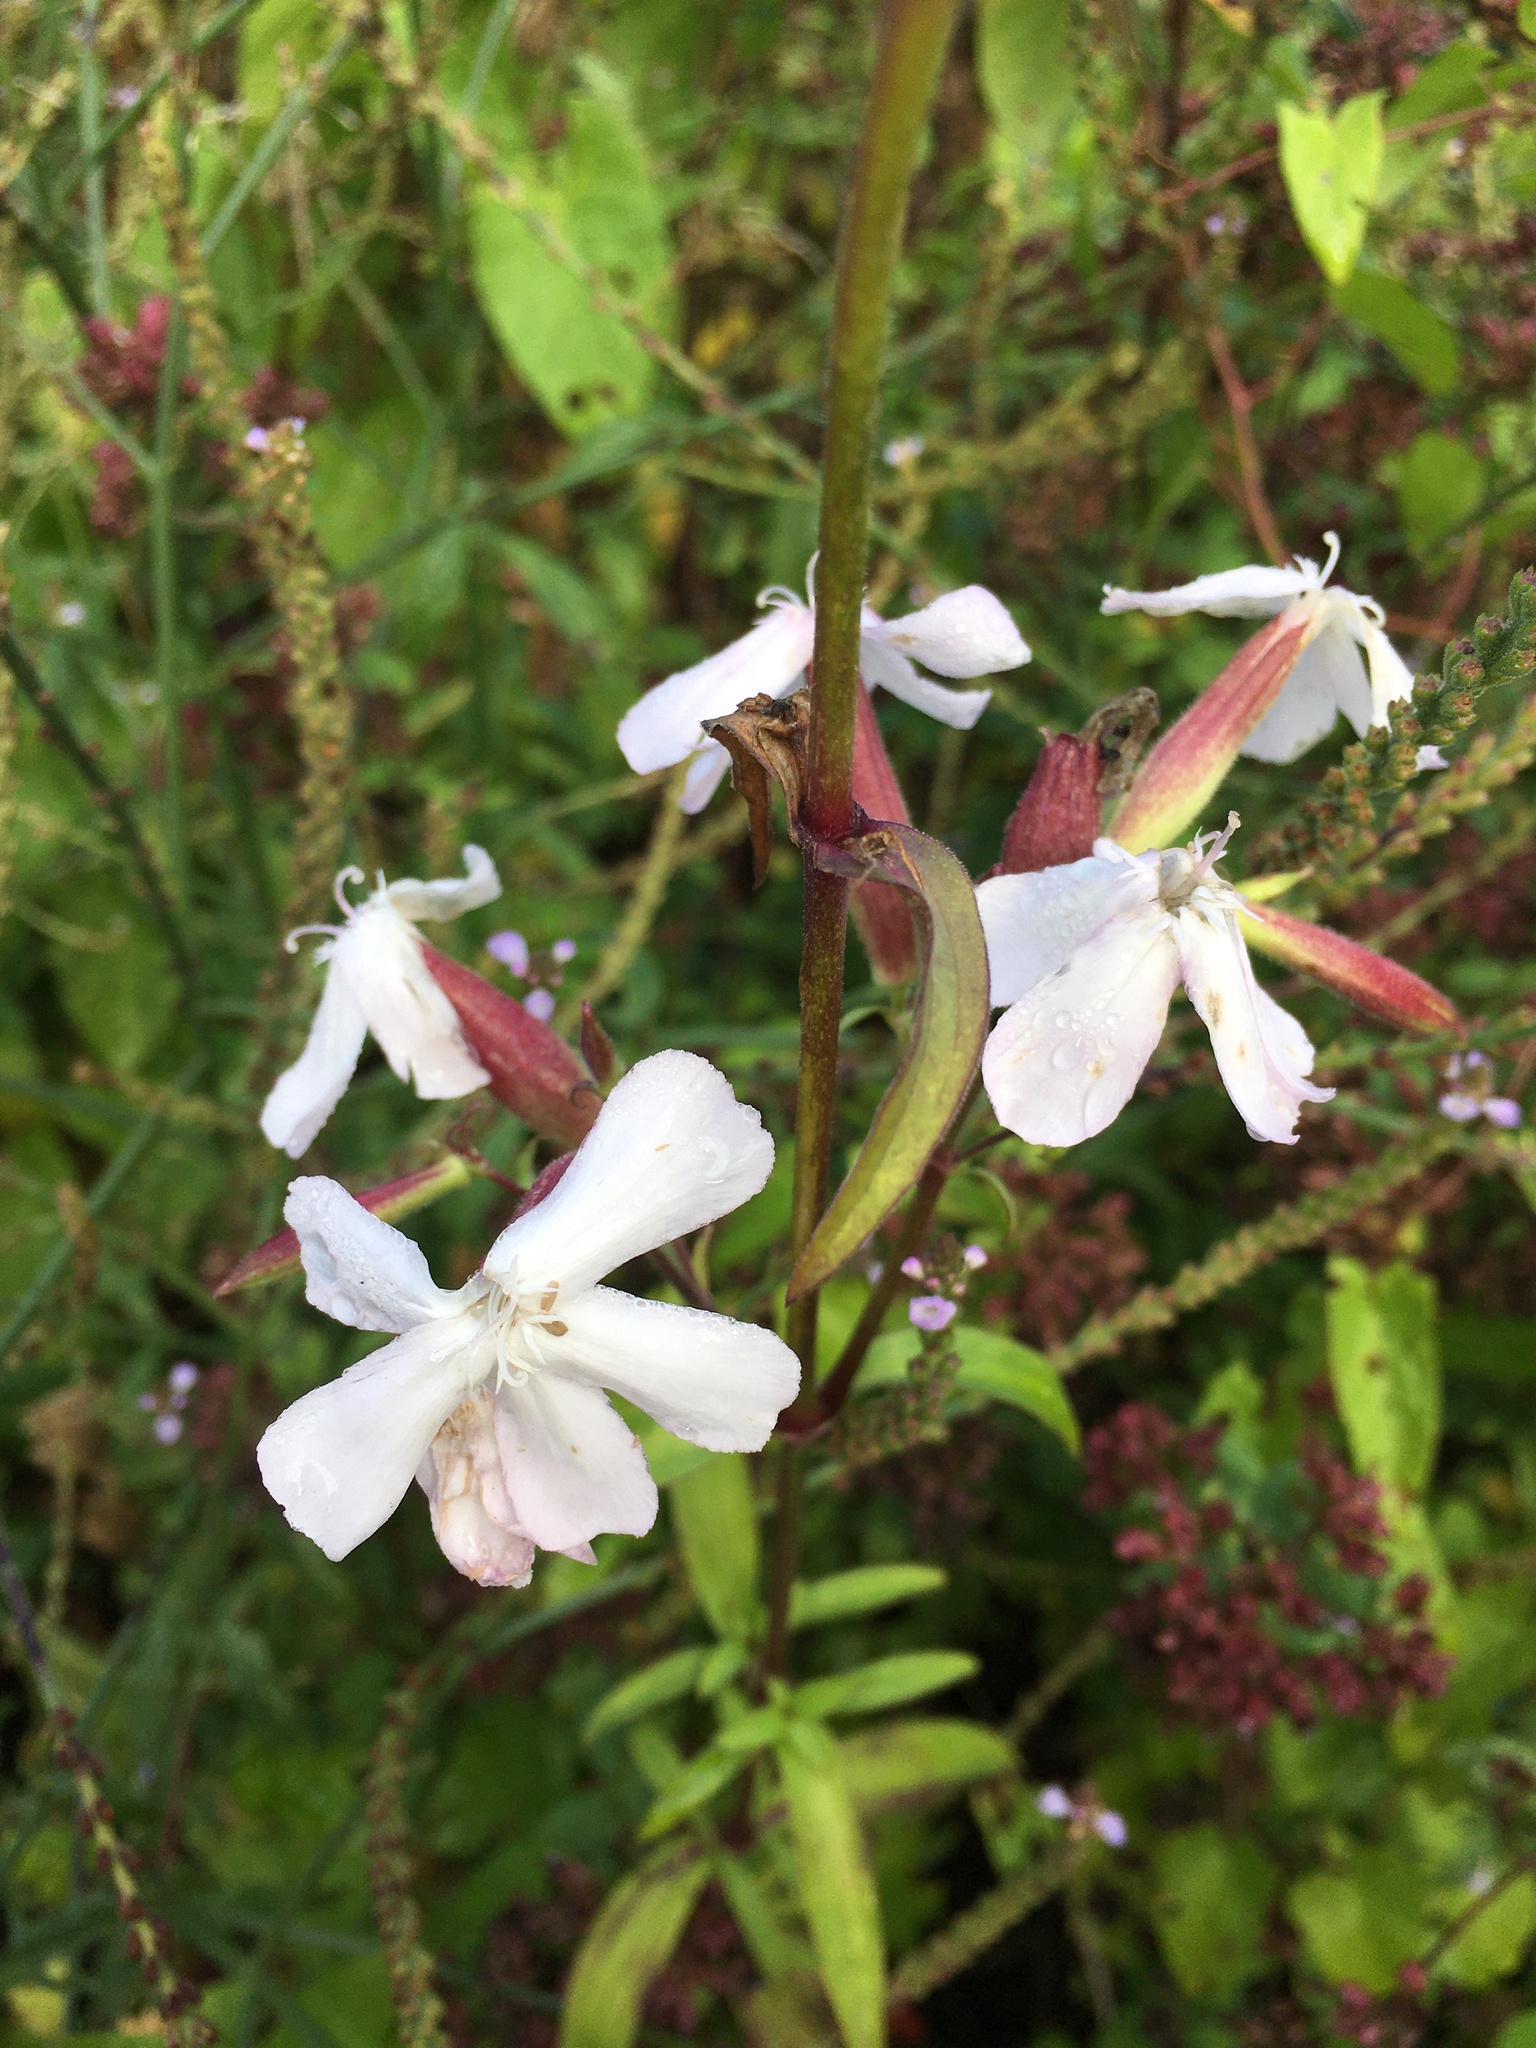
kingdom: Plantae
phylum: Tracheophyta
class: Magnoliopsida
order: Caryophyllales
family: Caryophyllaceae
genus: Saponaria
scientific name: Saponaria officinalis
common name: Soapwort
